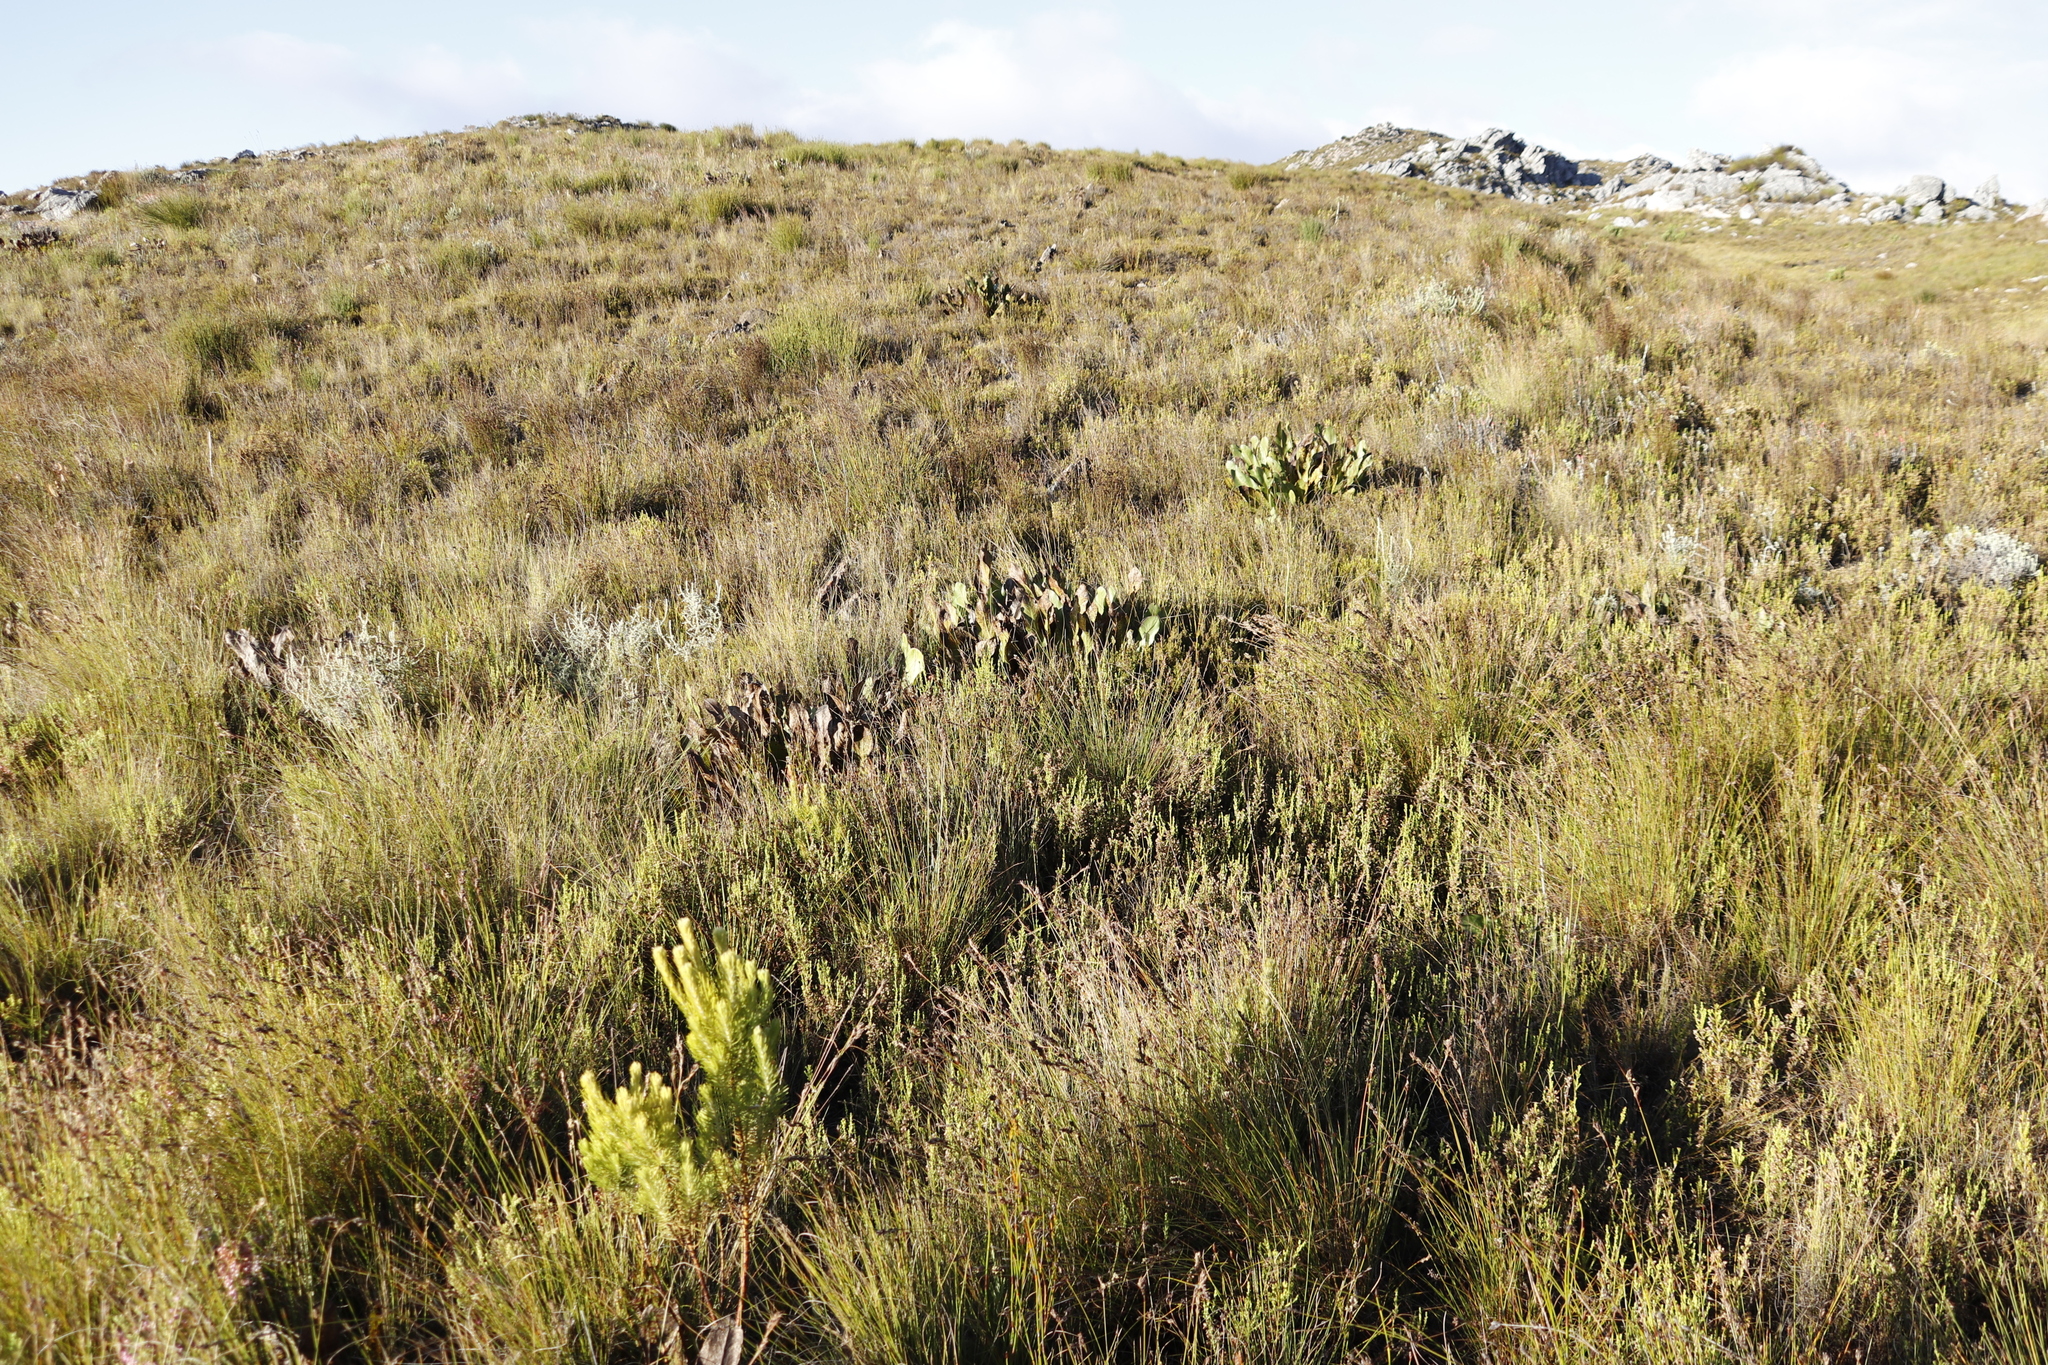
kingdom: Plantae
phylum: Tracheophyta
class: Magnoliopsida
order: Proteales
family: Proteaceae
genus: Protea
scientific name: Protea scolopendriifolia
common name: Harts-tongue-fern sugarbush
